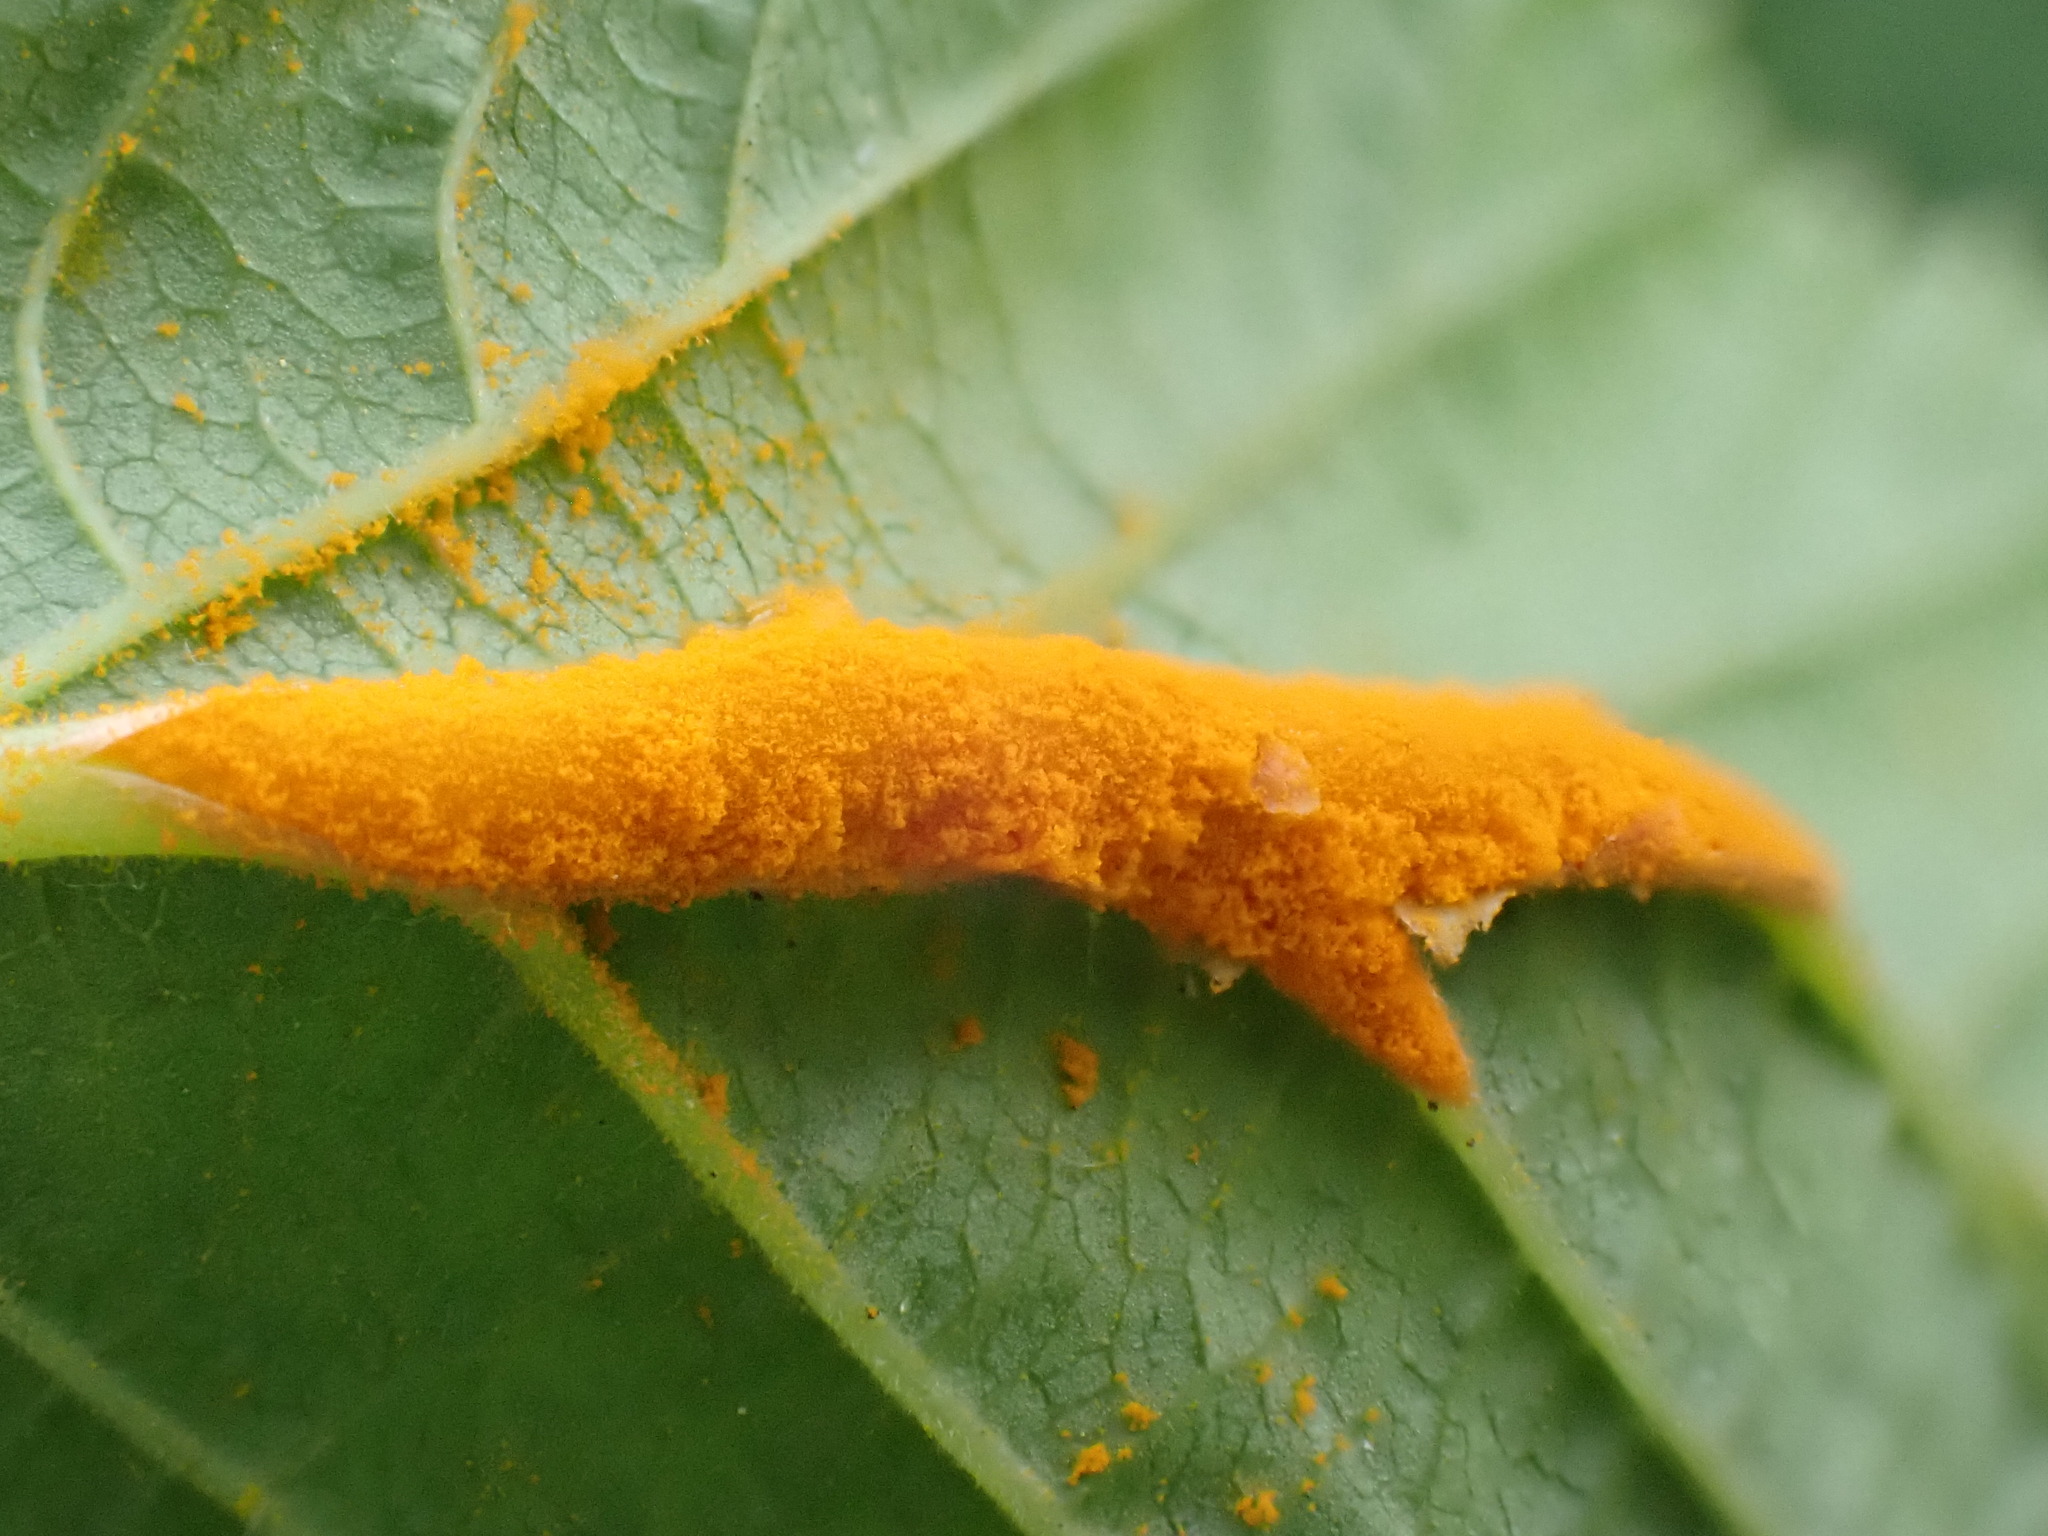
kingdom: Fungi
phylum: Basidiomycota
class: Pucciniomycetes
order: Pucciniales
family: Raveneliaceae
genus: Triphragmium
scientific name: Triphragmium ulmariae
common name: Meadowsweet rust
